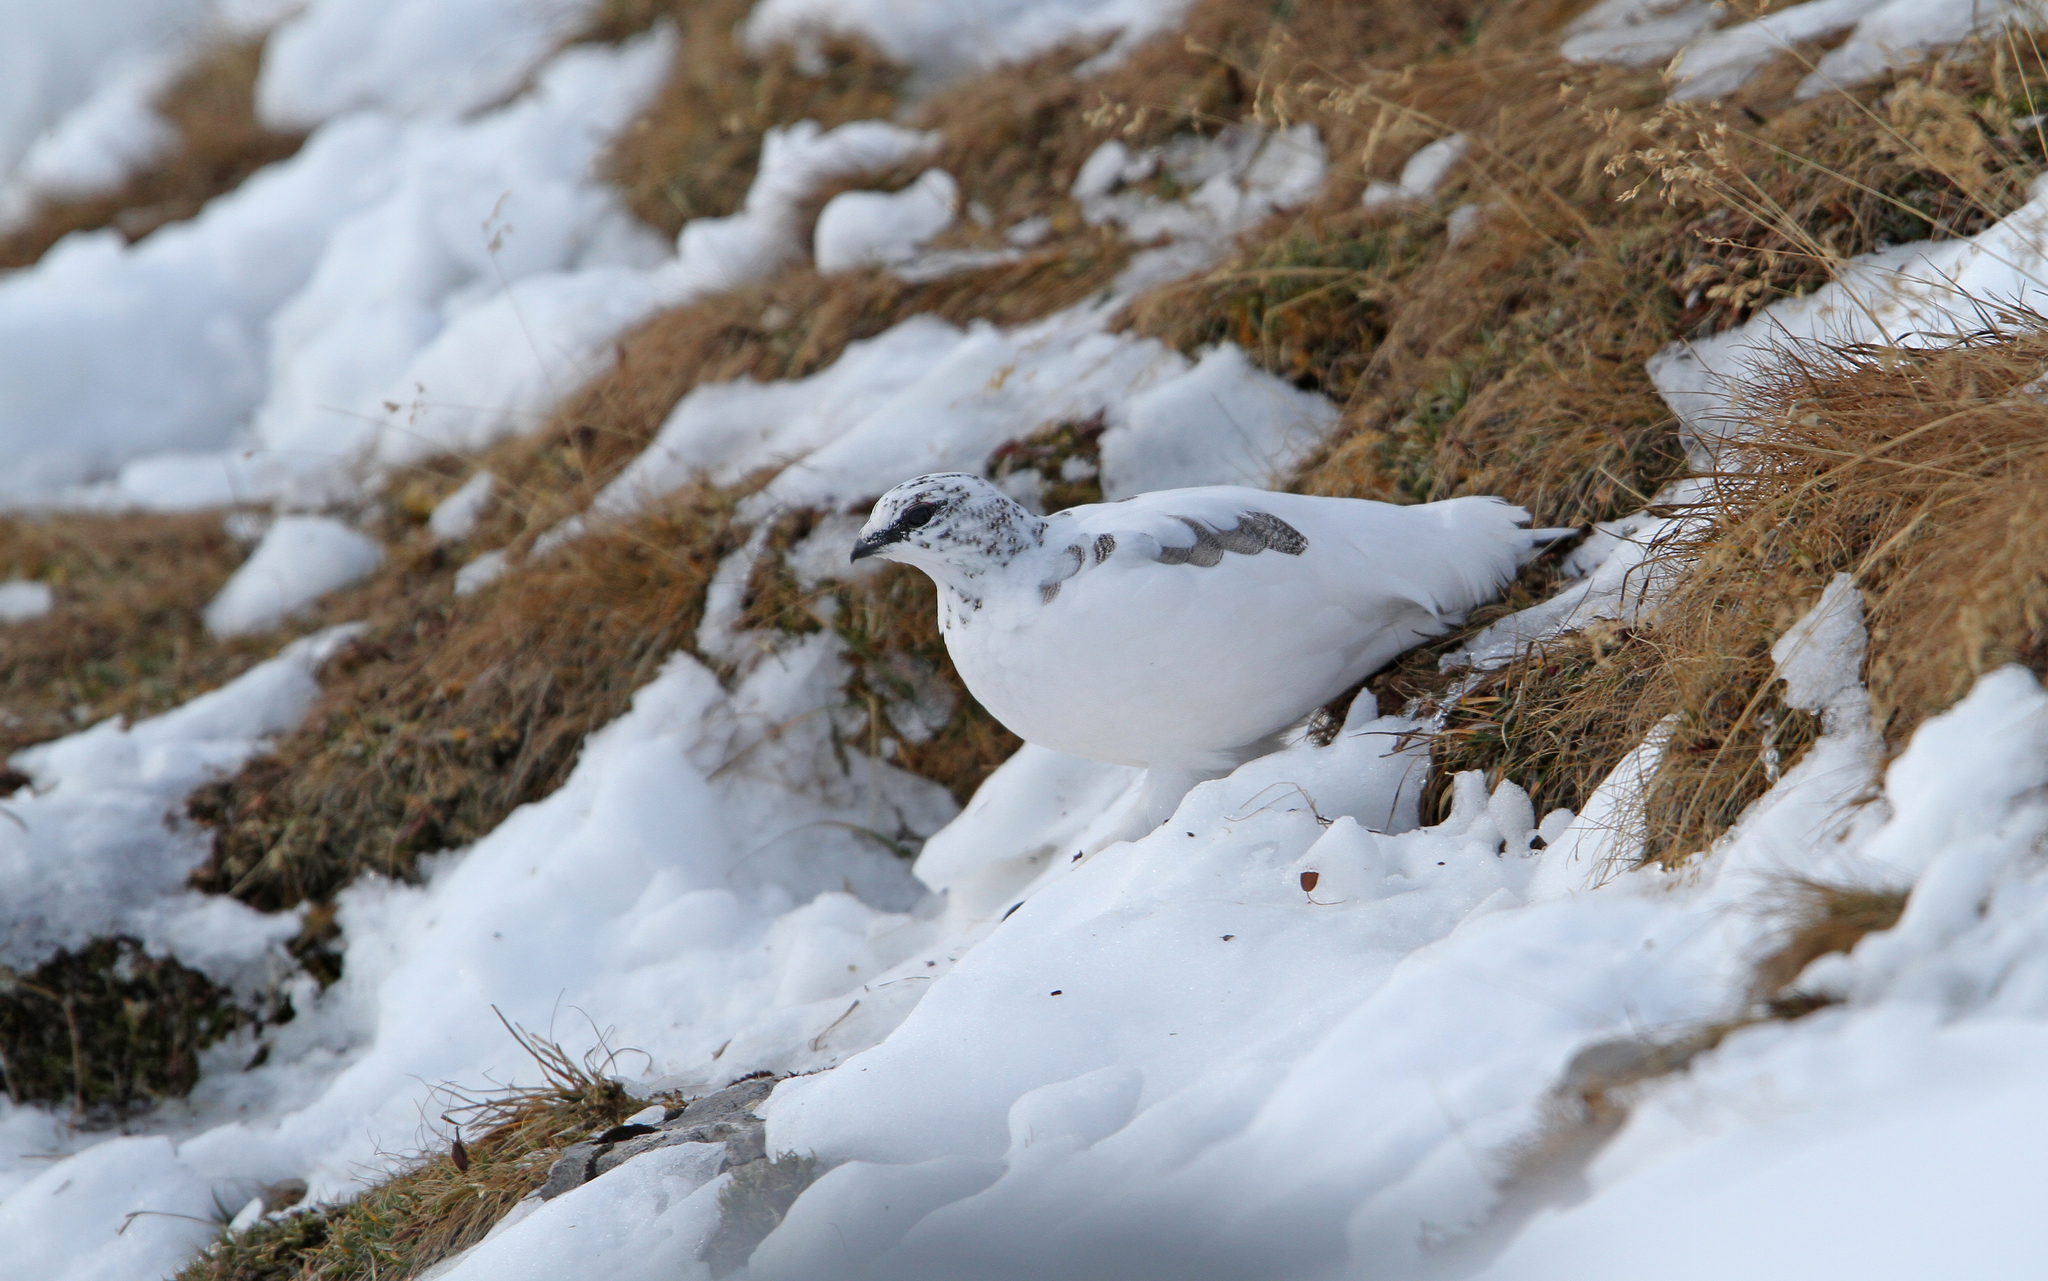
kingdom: Animalia
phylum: Chordata
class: Aves
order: Galliformes
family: Phasianidae
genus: Lagopus
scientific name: Lagopus muta
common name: Rock ptarmigan
